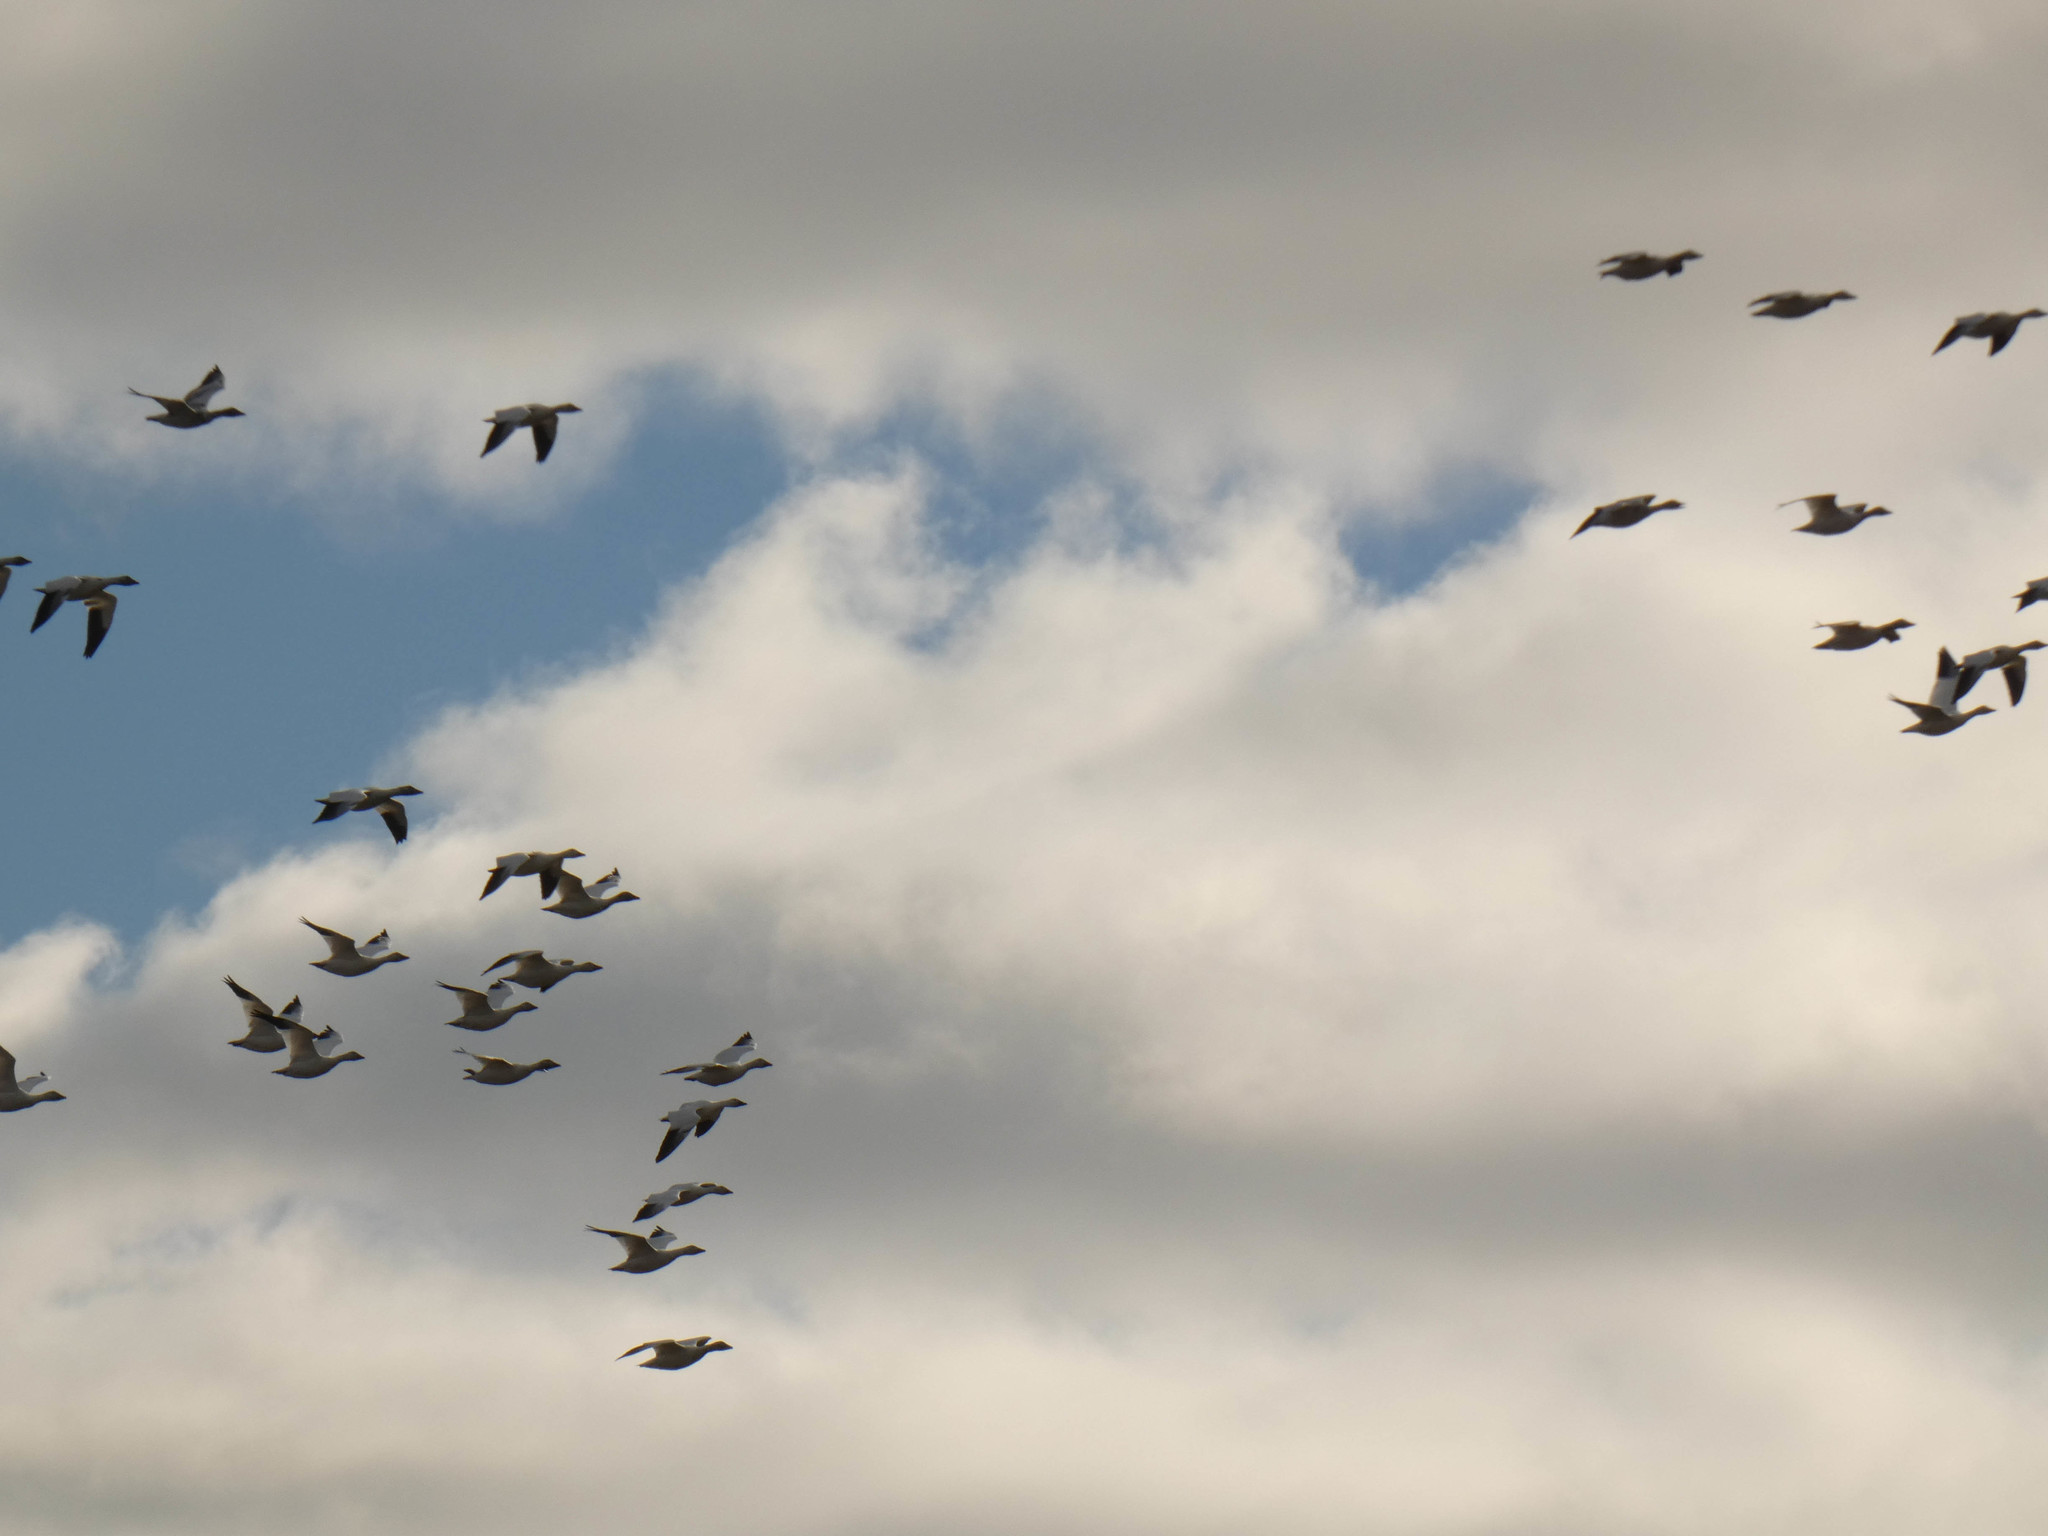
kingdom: Animalia
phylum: Chordata
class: Aves
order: Anseriformes
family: Anatidae
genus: Anser
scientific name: Anser caerulescens
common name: Snow goose
